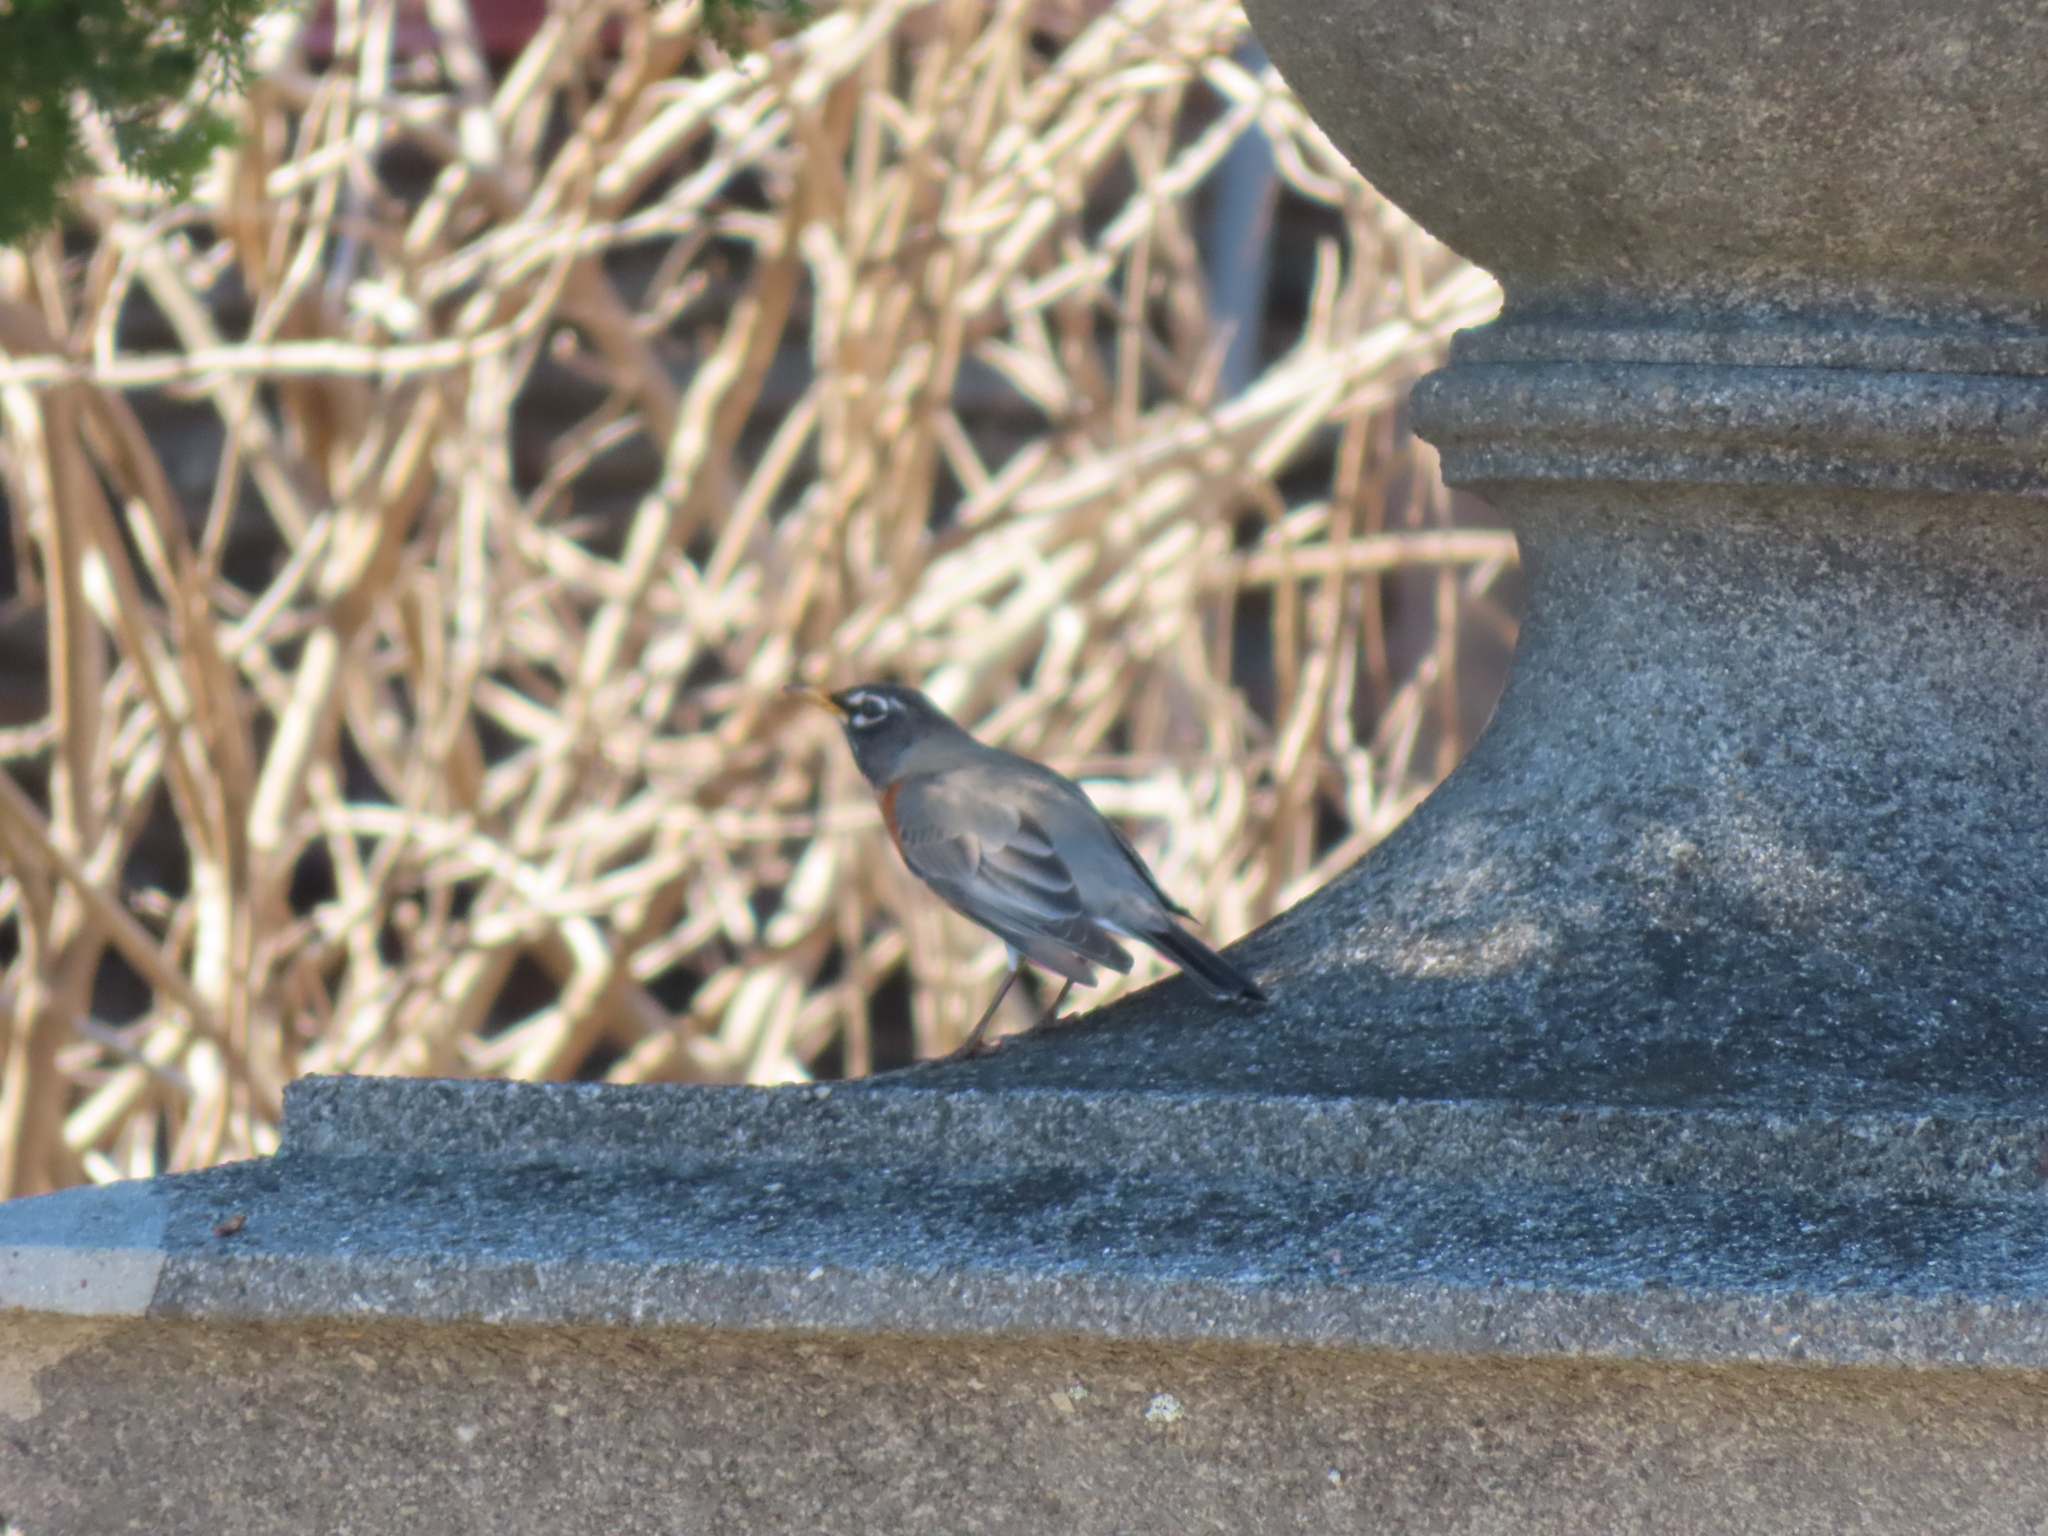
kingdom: Animalia
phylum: Chordata
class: Aves
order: Passeriformes
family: Turdidae
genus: Turdus
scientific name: Turdus migratorius
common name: American robin
